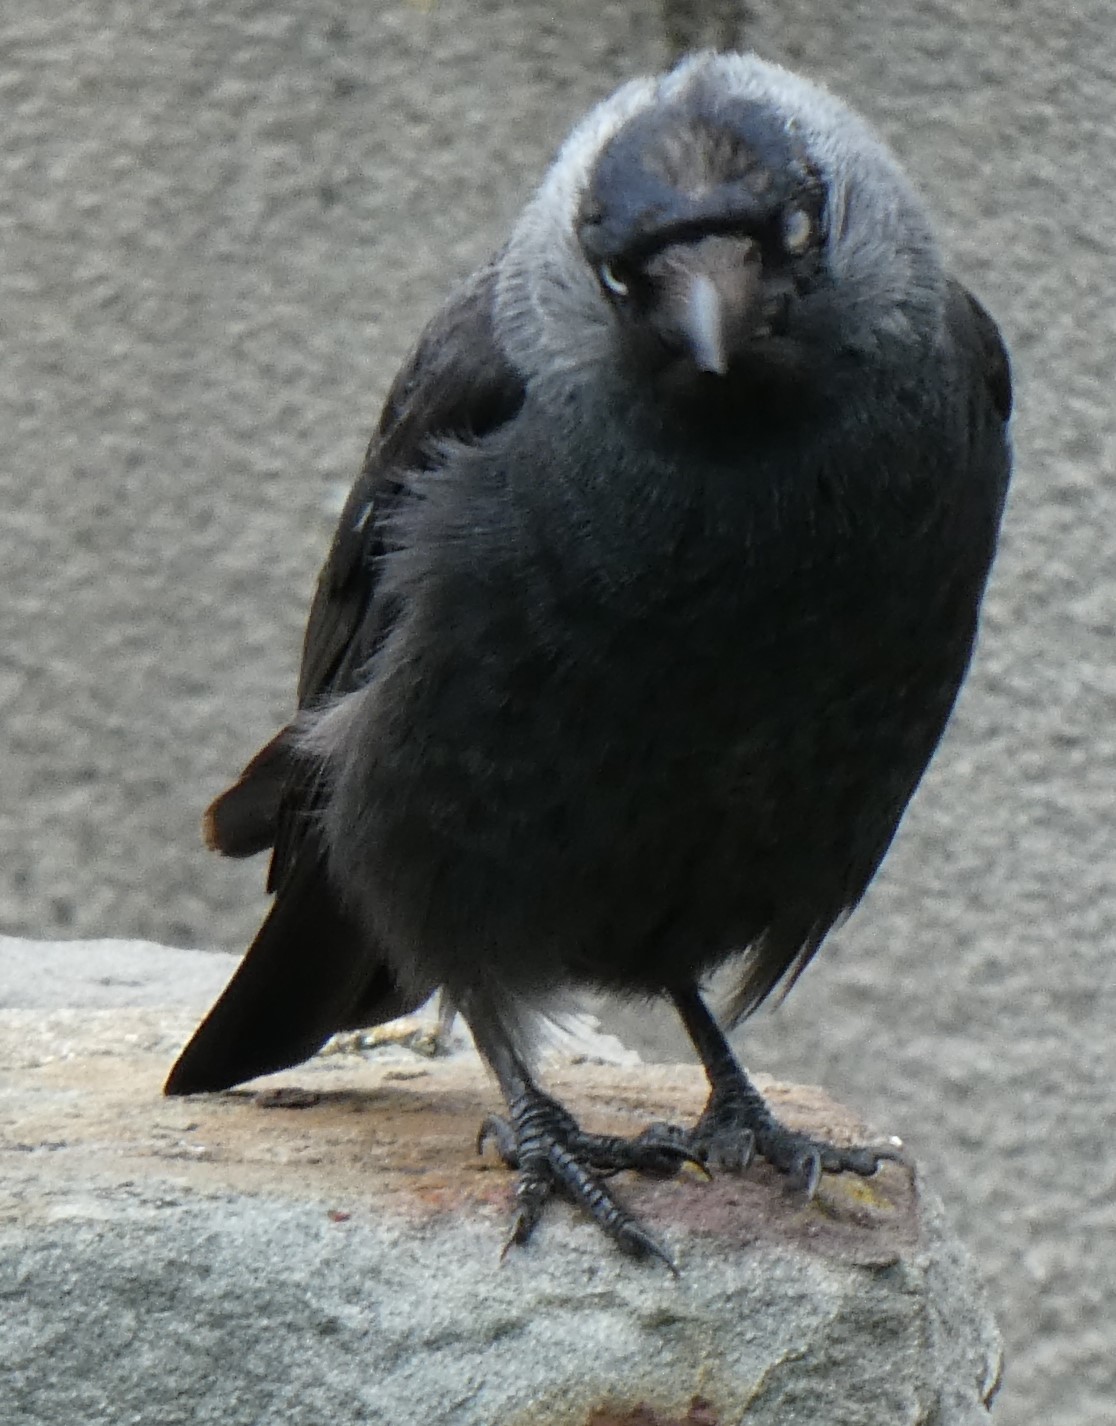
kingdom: Animalia
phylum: Chordata
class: Aves
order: Passeriformes
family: Corvidae
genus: Coloeus
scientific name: Coloeus monedula
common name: Western jackdaw
